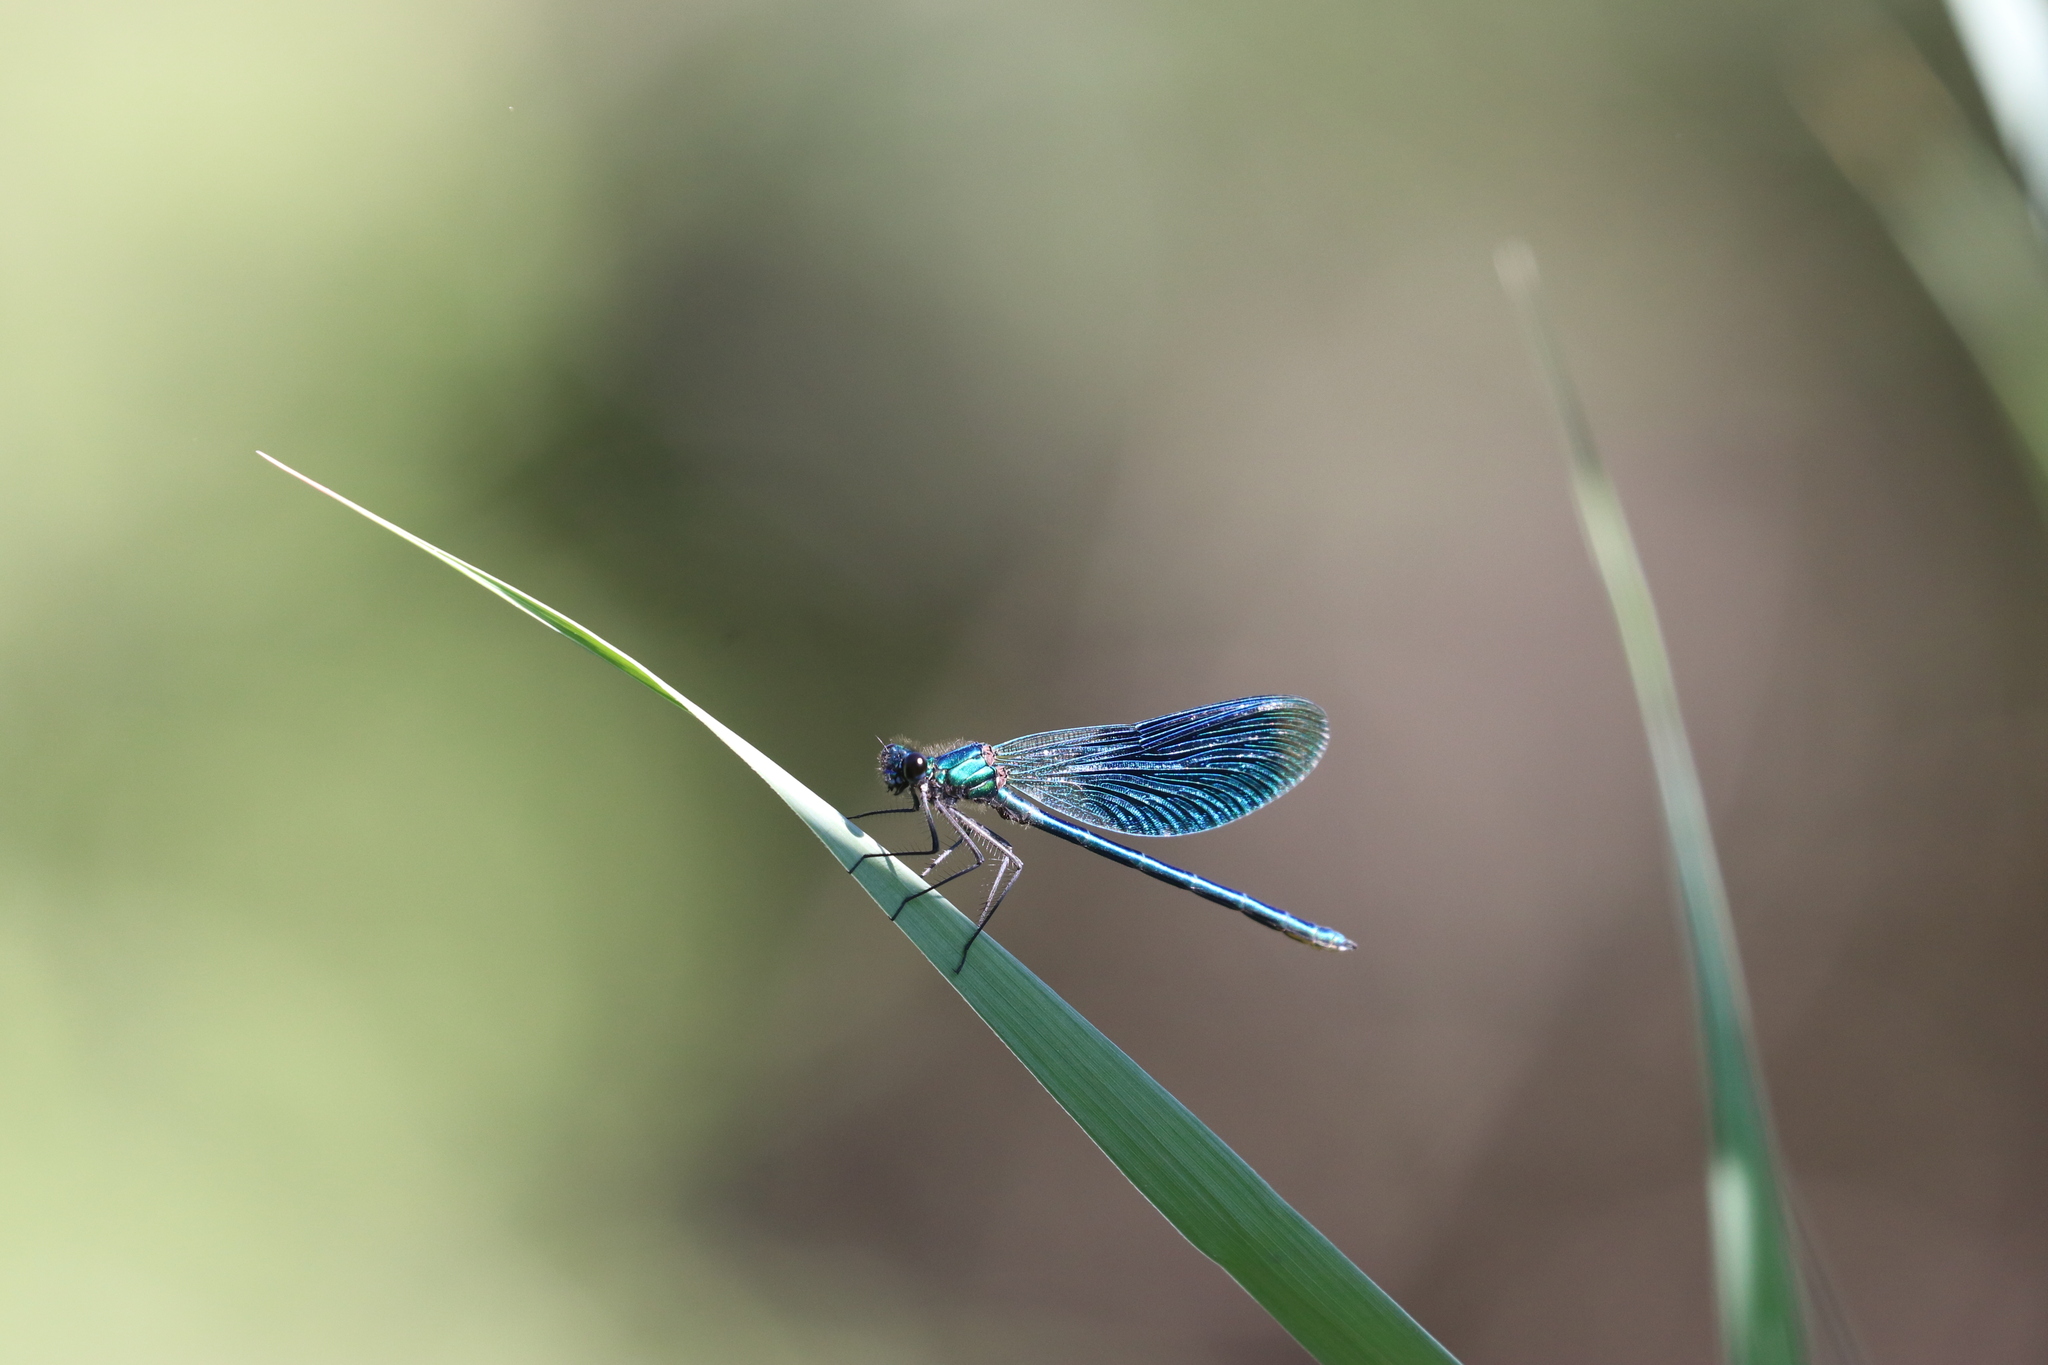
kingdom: Animalia
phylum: Arthropoda
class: Insecta
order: Odonata
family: Calopterygidae
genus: Calopteryx
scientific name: Calopteryx splendens
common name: Banded demoiselle
